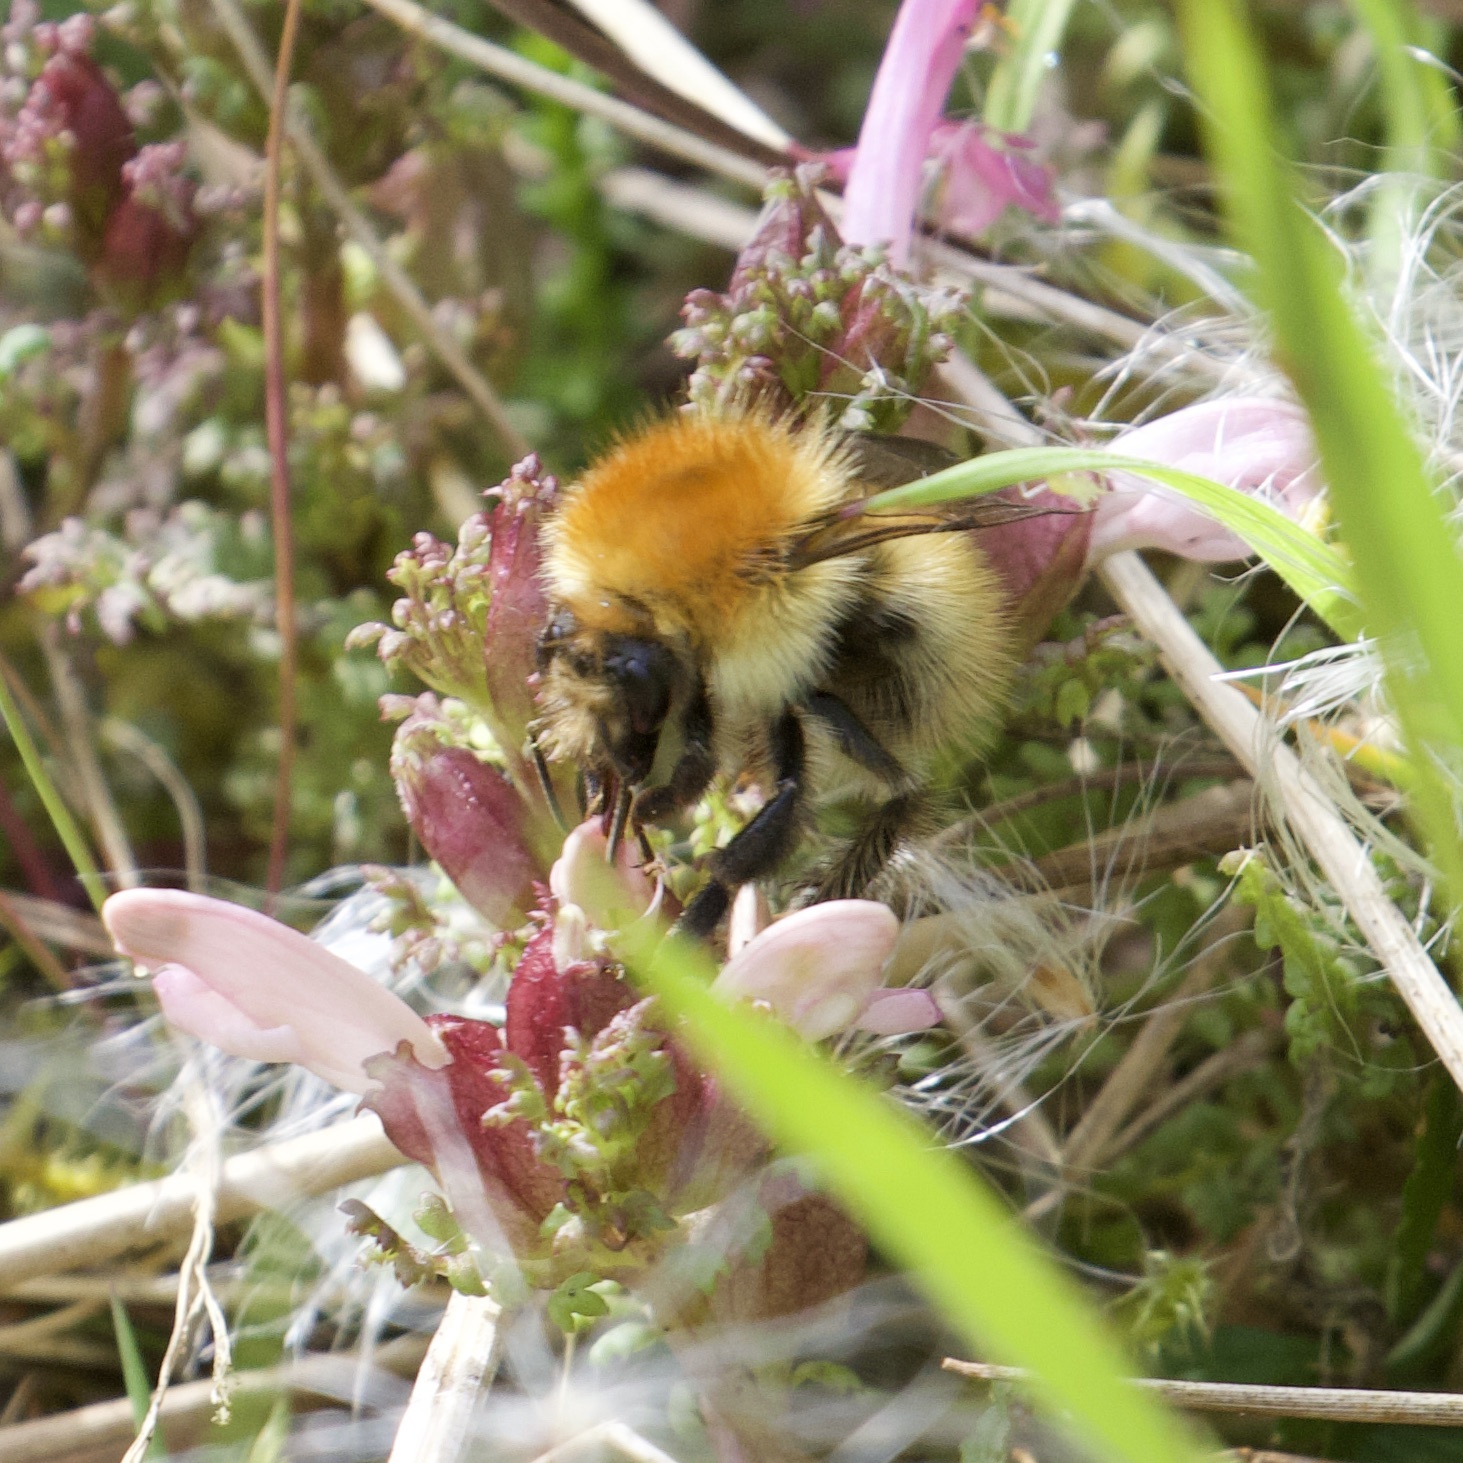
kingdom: Animalia
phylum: Arthropoda
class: Insecta
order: Hymenoptera
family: Apidae
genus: Bombus
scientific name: Bombus pascuorum
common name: Common carder bee
